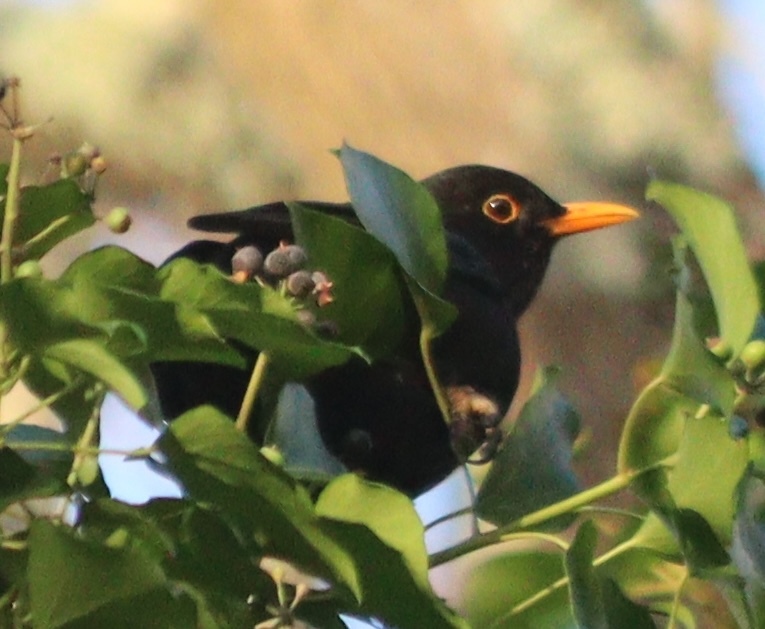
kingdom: Animalia
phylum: Chordata
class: Aves
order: Passeriformes
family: Turdidae
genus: Turdus
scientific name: Turdus merula
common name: Common blackbird
